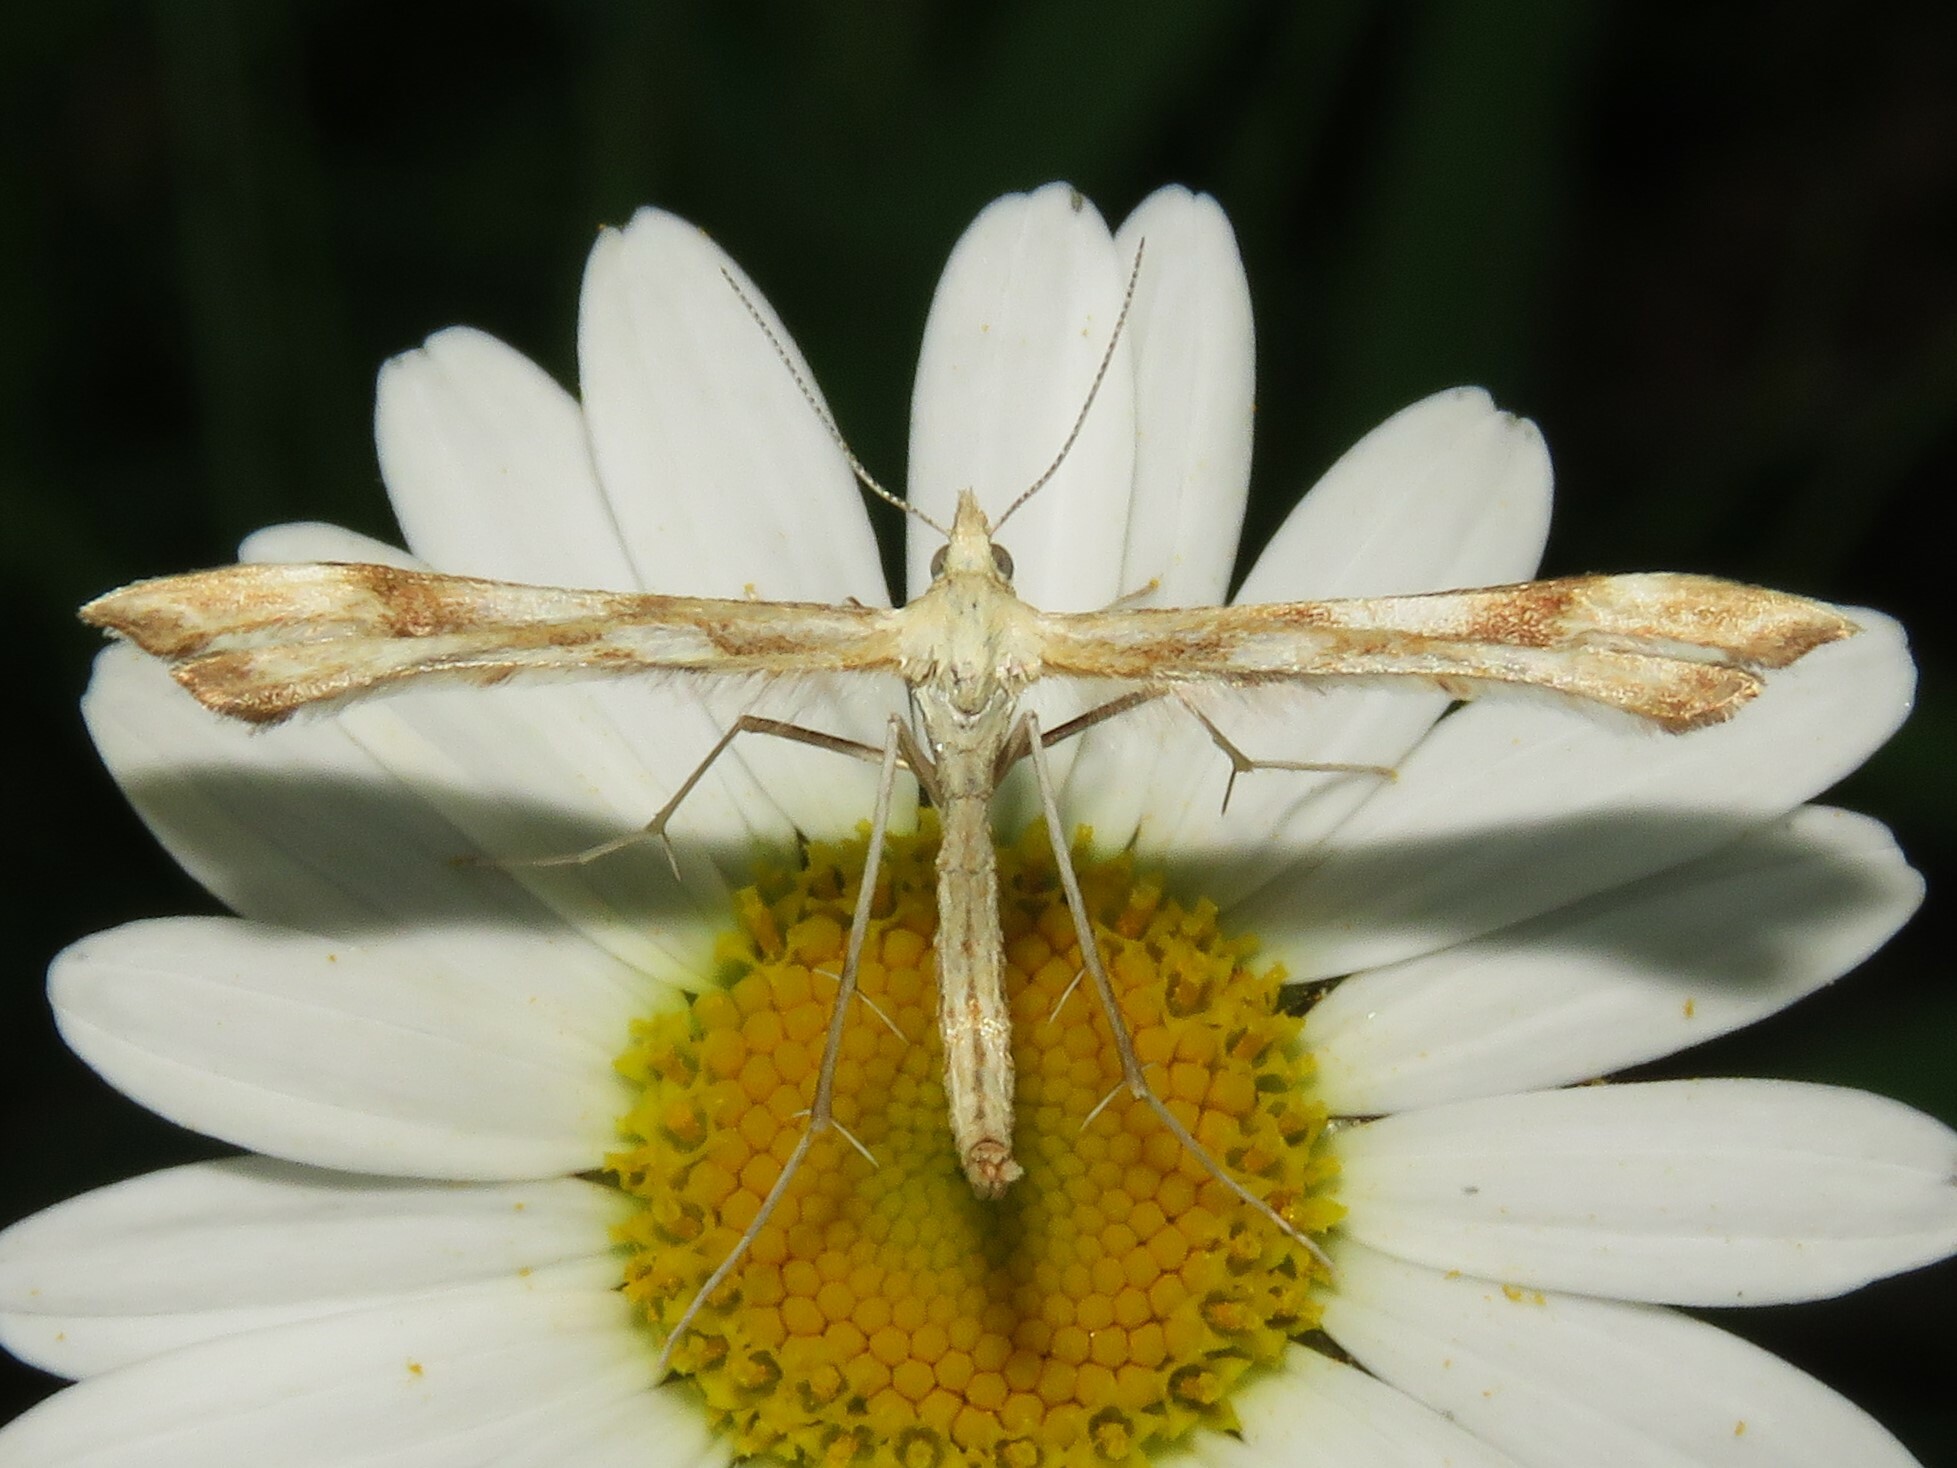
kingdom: Animalia
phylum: Arthropoda
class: Insecta
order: Lepidoptera
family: Pterophoridae
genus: Gillmeria
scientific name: Gillmeria pallidactyla
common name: Yarrow plume
